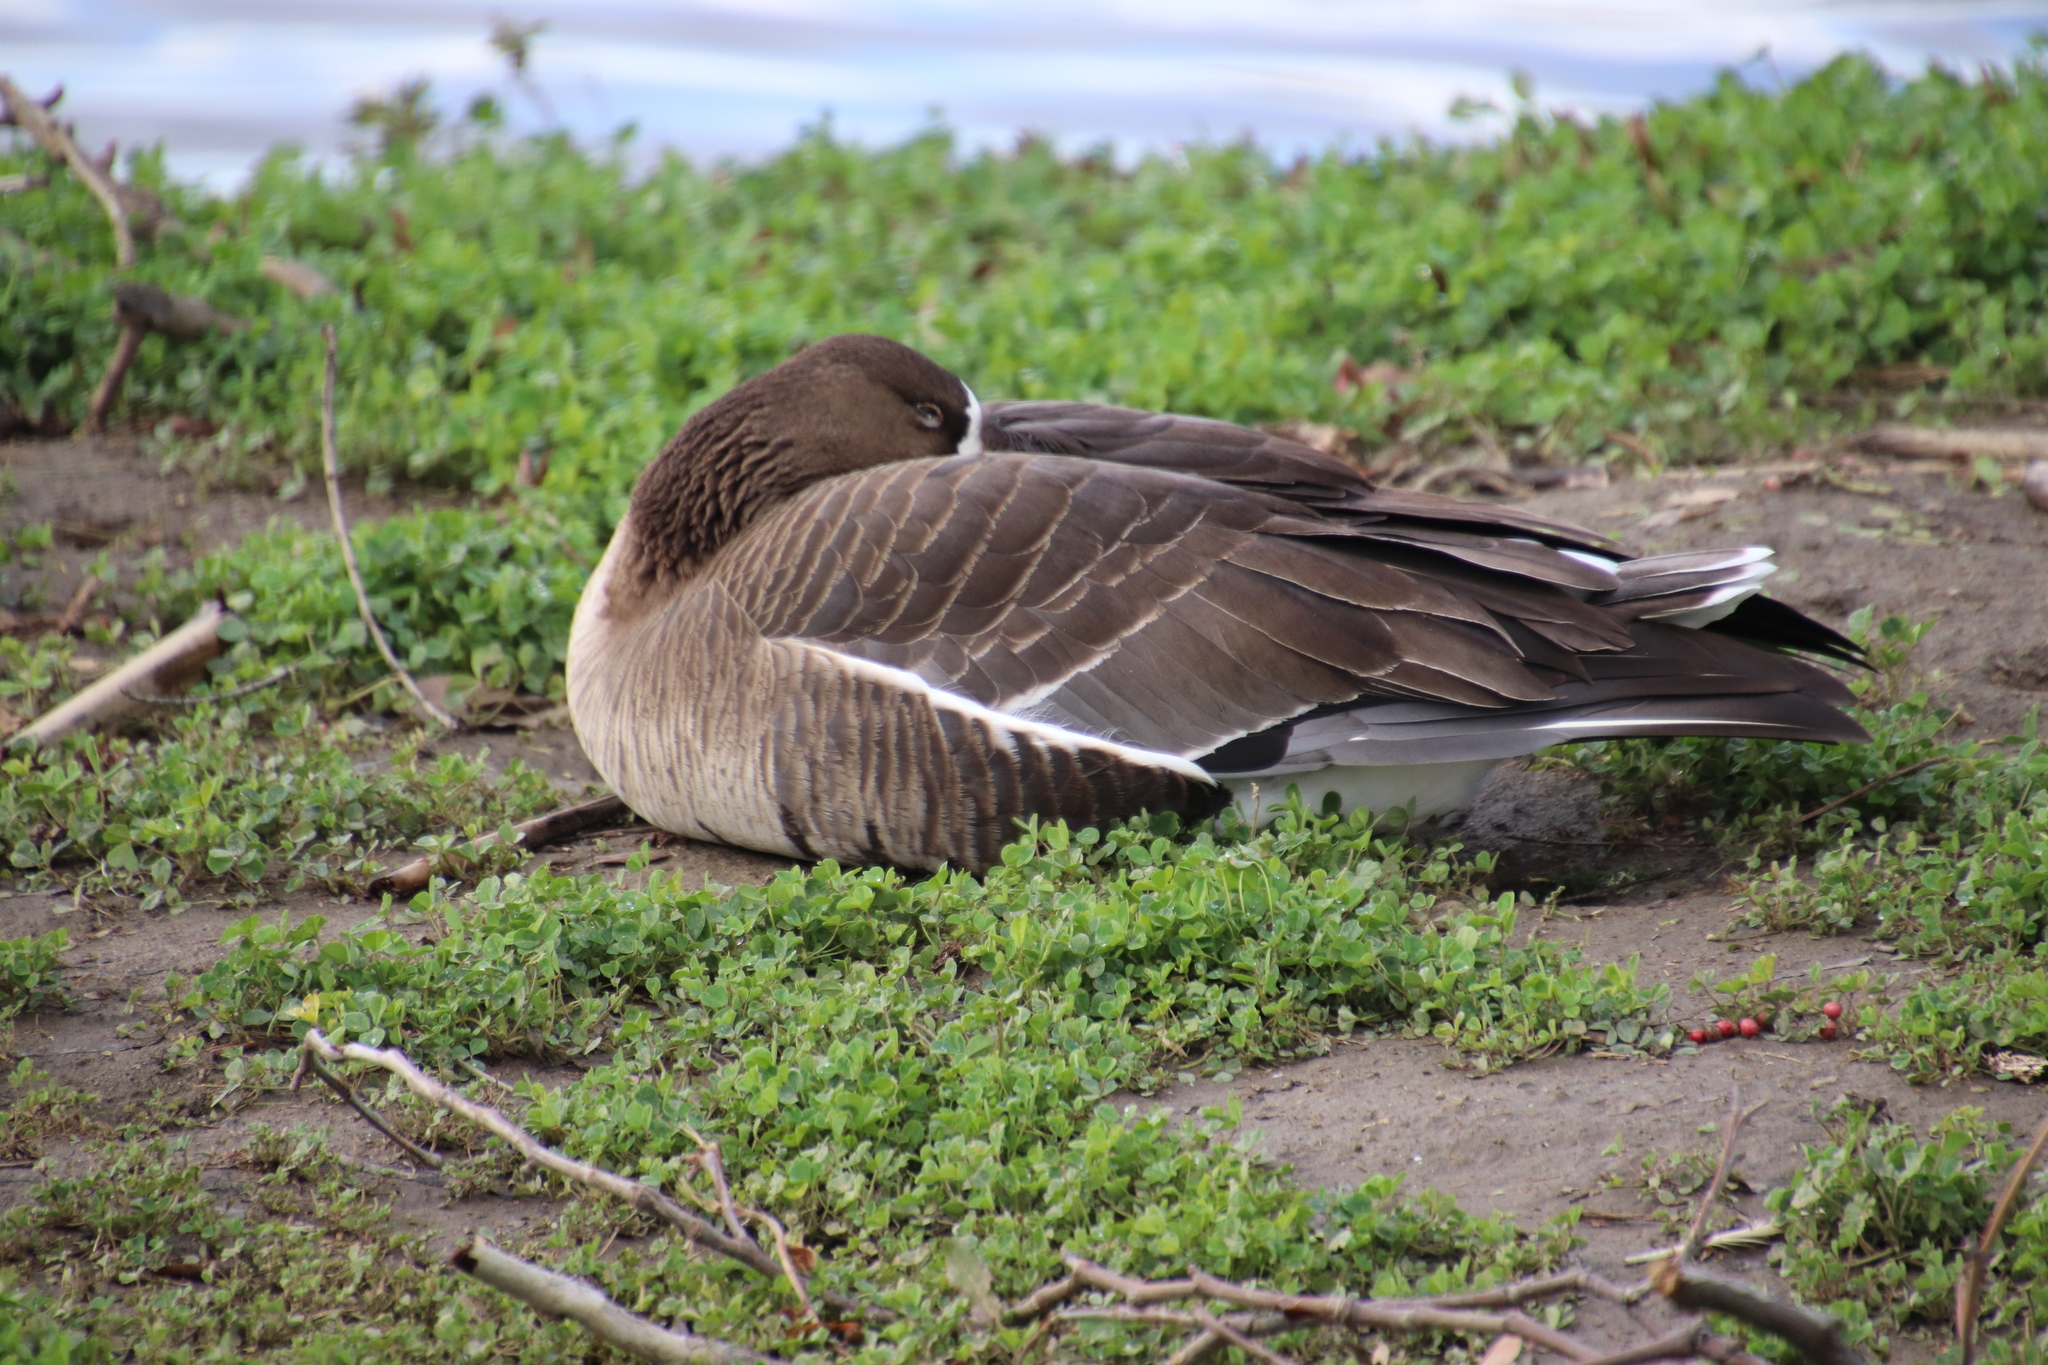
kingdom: Animalia
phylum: Chordata
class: Aves
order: Anseriformes
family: Anatidae
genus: Anser
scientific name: Anser albifrons
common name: Greater white-fronted goose
